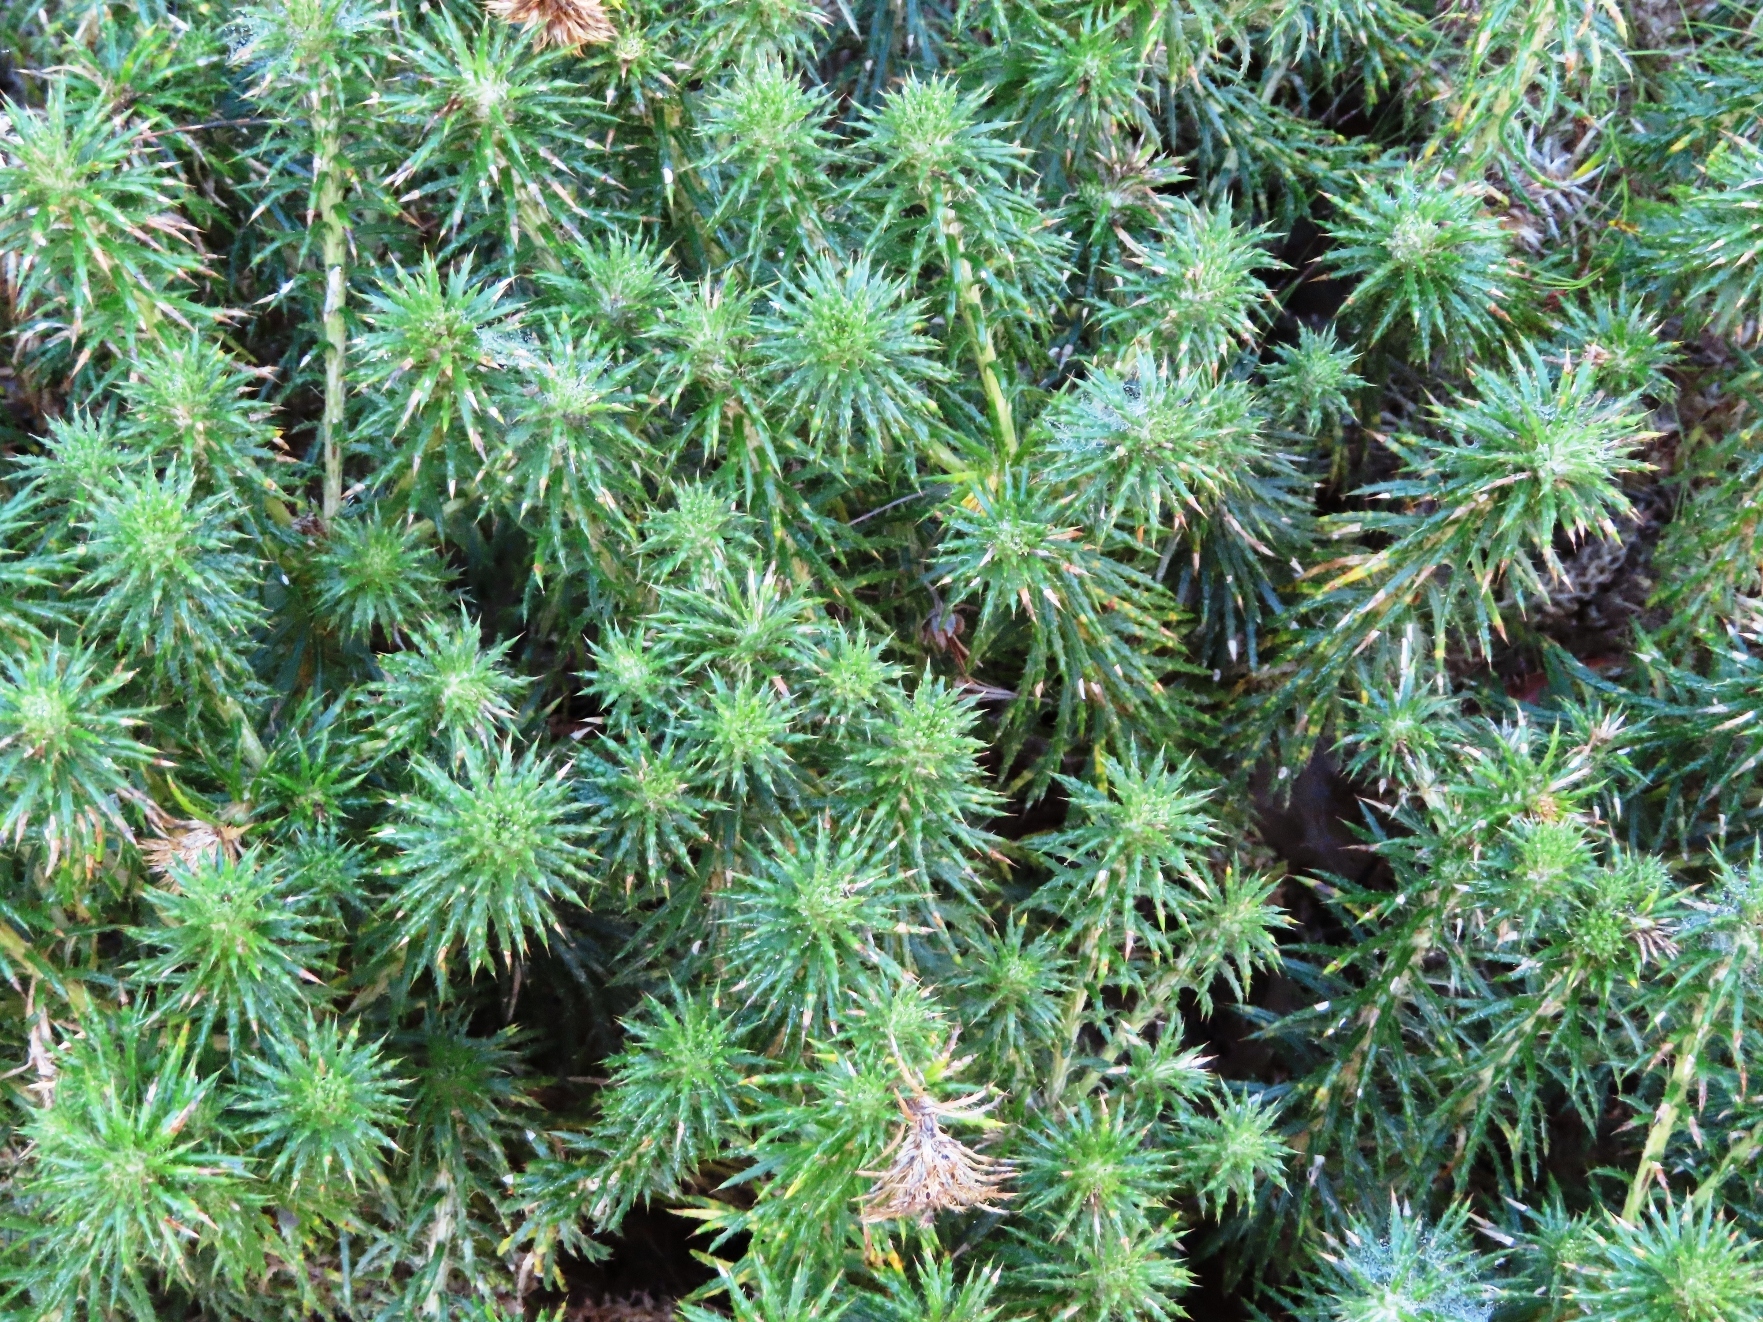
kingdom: Plantae
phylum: Tracheophyta
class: Magnoliopsida
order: Asterales
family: Asteraceae
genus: Cullumia
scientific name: Cullumia squarrosa
